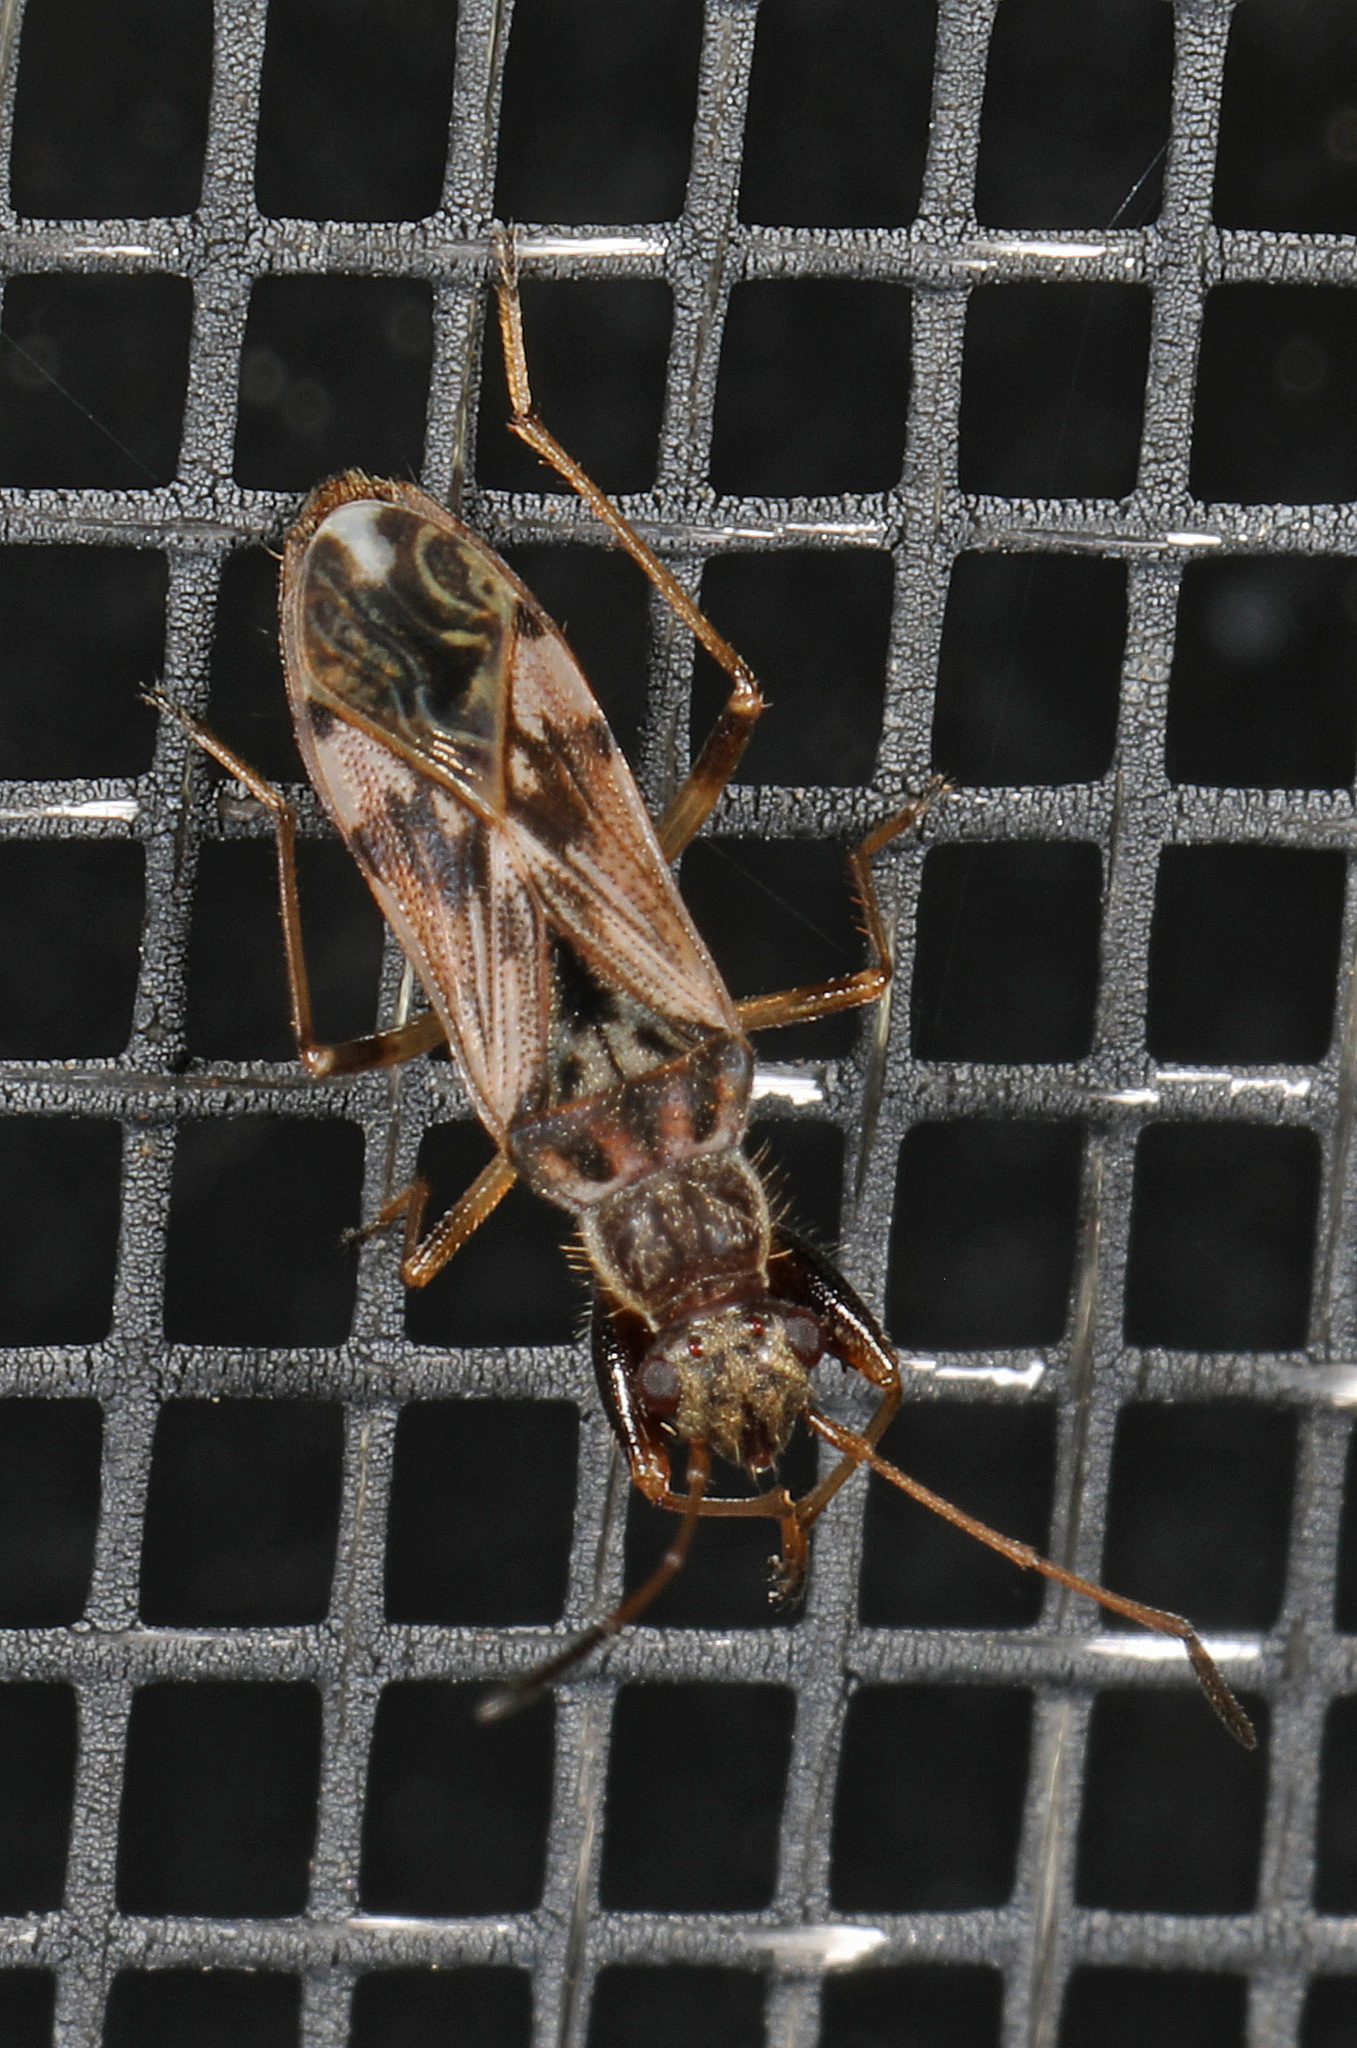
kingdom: Animalia
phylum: Arthropoda
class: Insecta
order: Hemiptera
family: Rhyparochromidae
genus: Neopamera
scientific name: Neopamera bilobata
